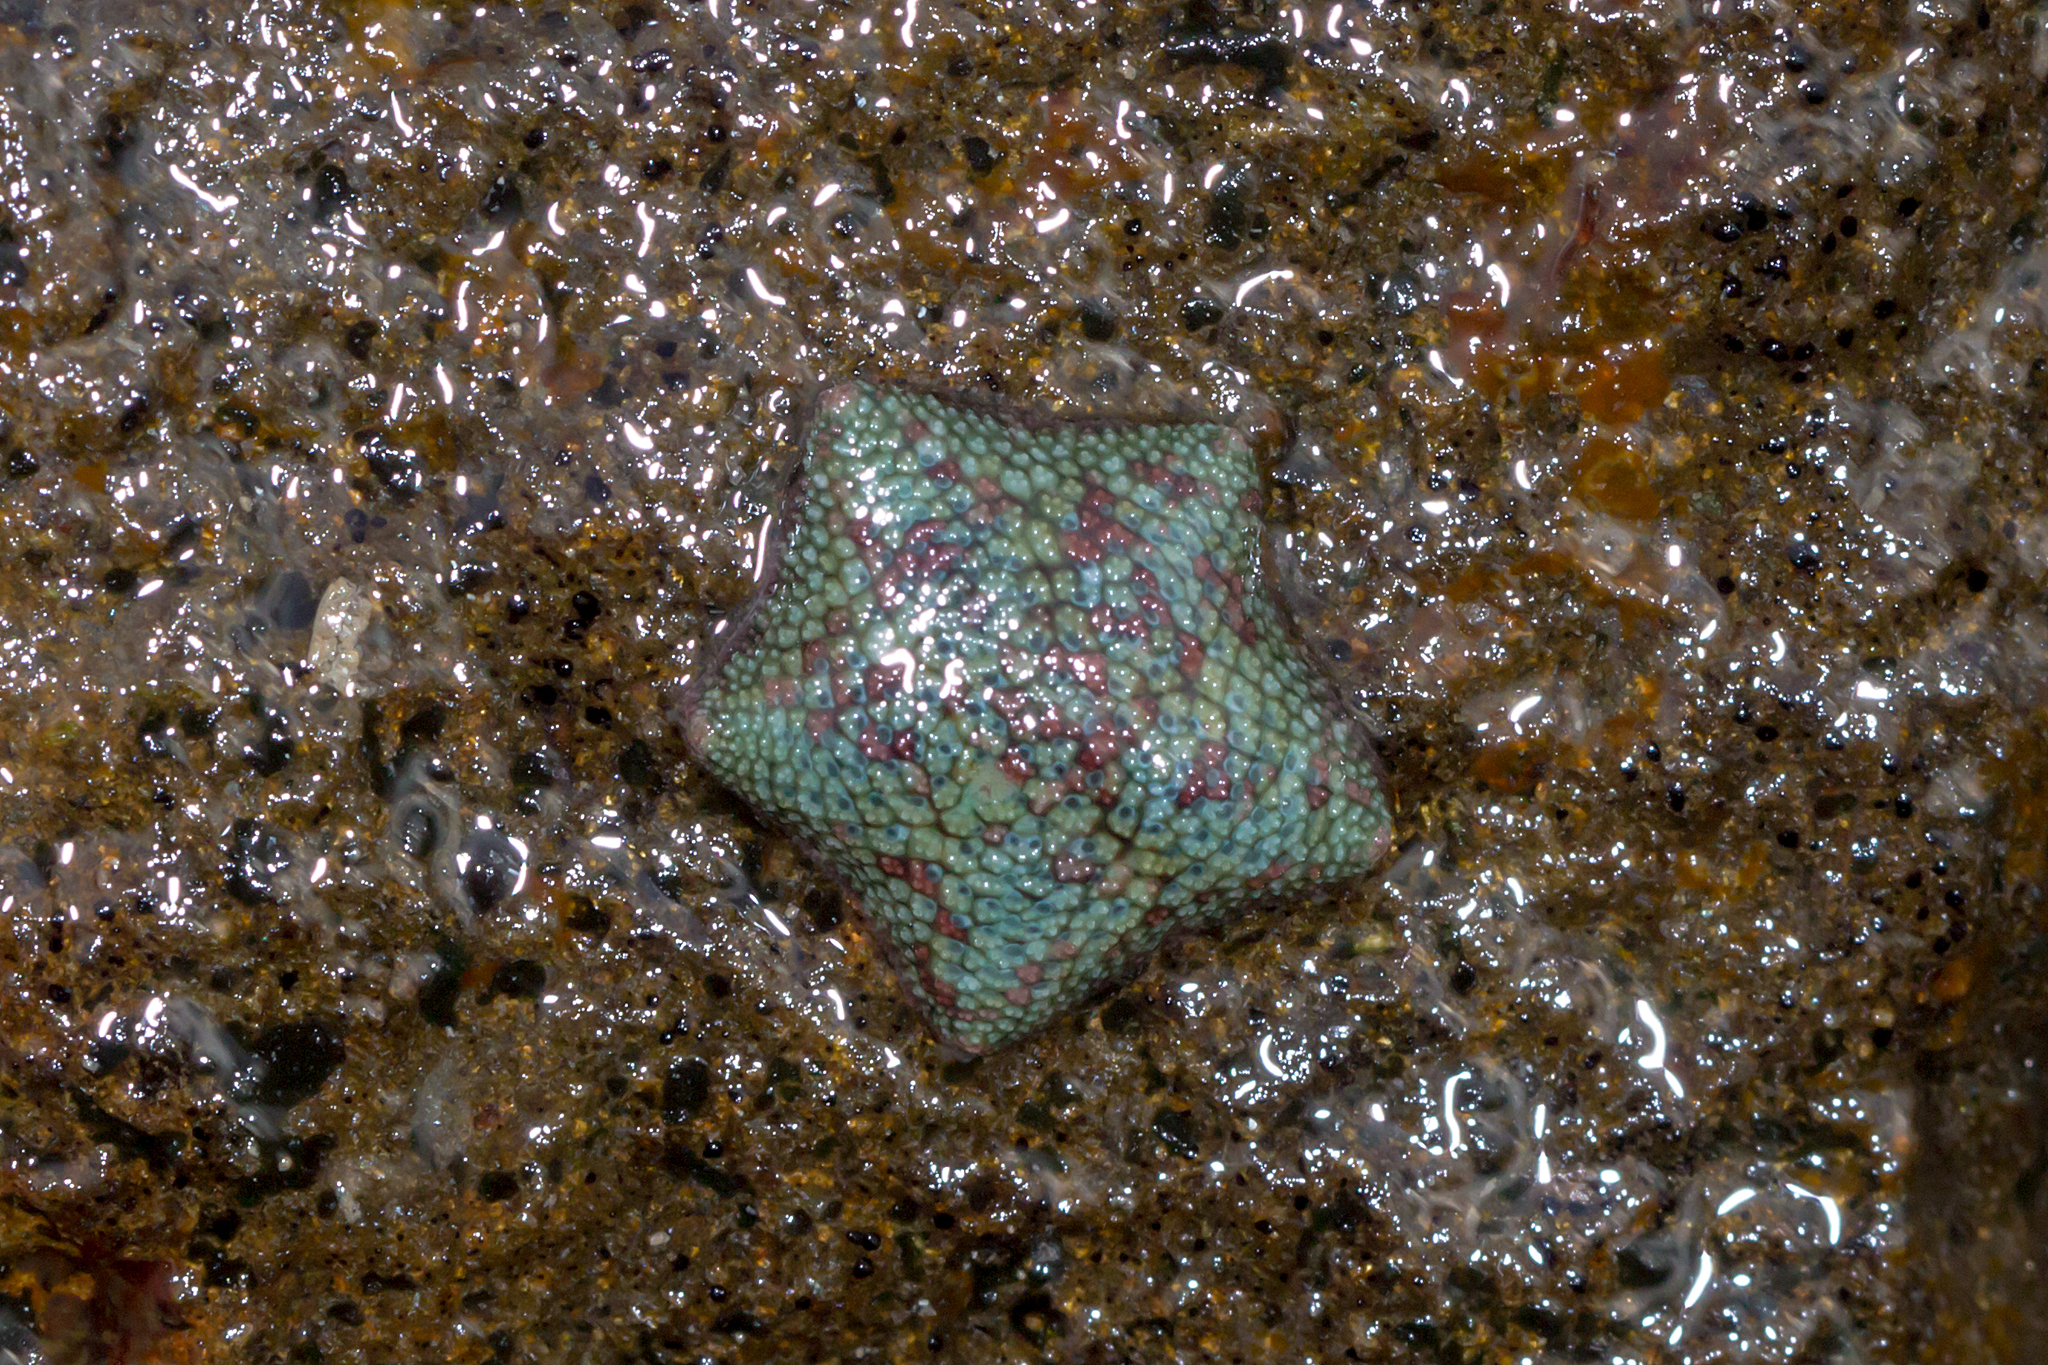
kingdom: Animalia
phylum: Echinodermata
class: Asteroidea
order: Valvatida
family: Asterinidae
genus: Parvulastra
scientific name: Parvulastra exigua
